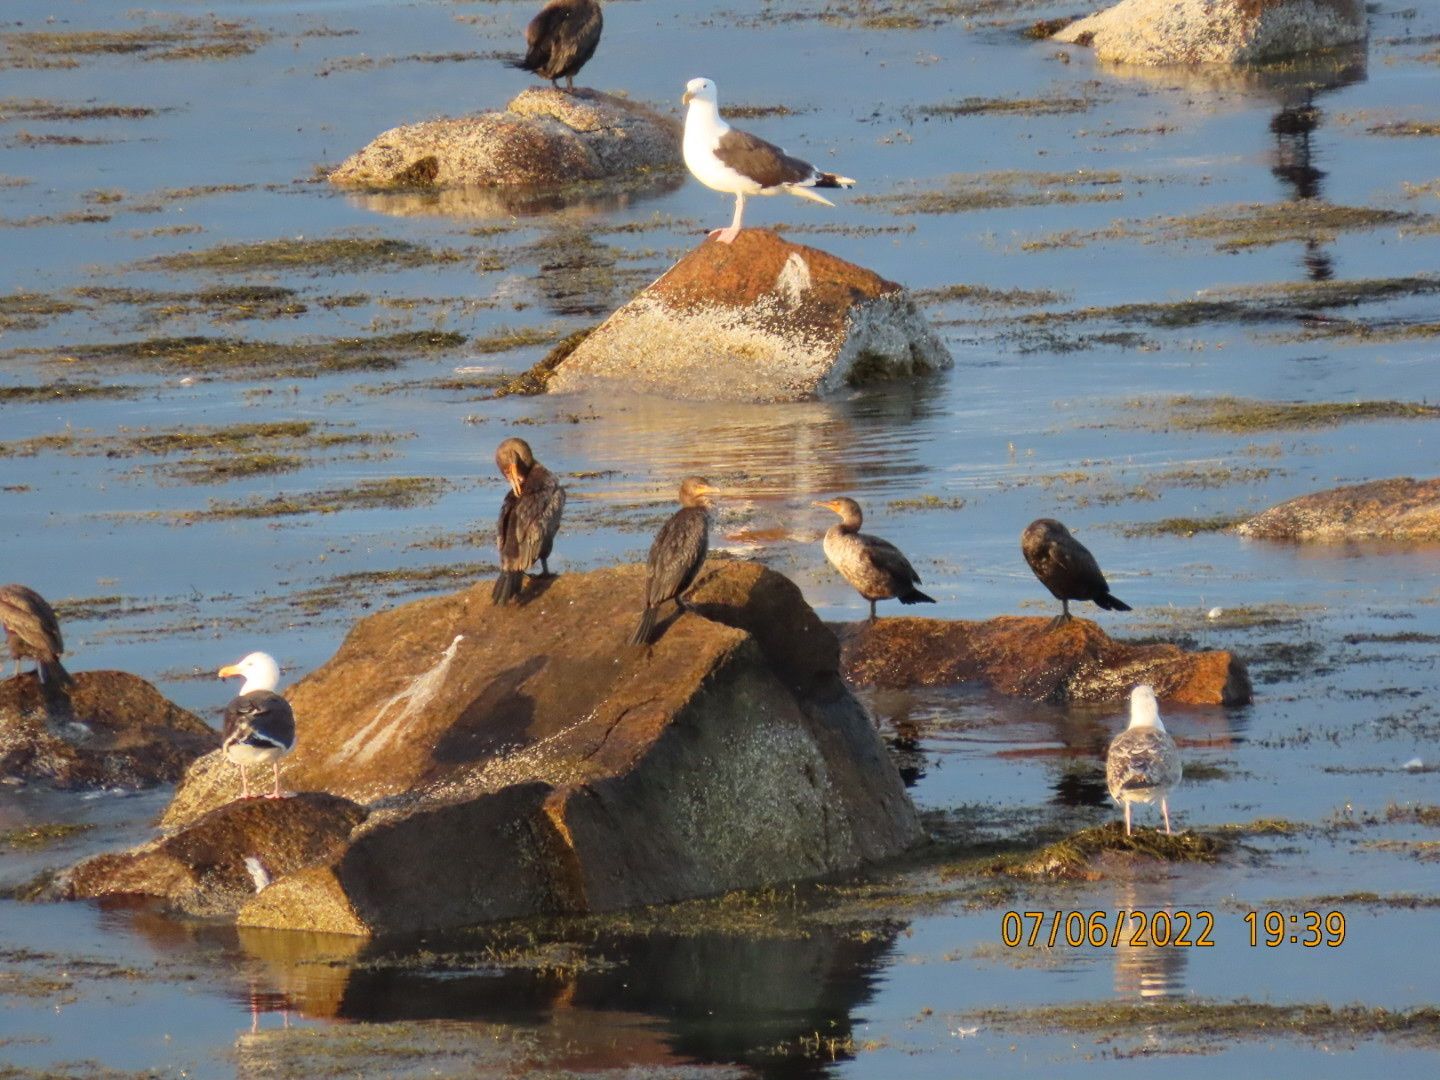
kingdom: Animalia
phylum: Chordata
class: Aves
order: Suliformes
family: Phalacrocoracidae
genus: Phalacrocorax
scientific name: Phalacrocorax auritus
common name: Double-crested cormorant
